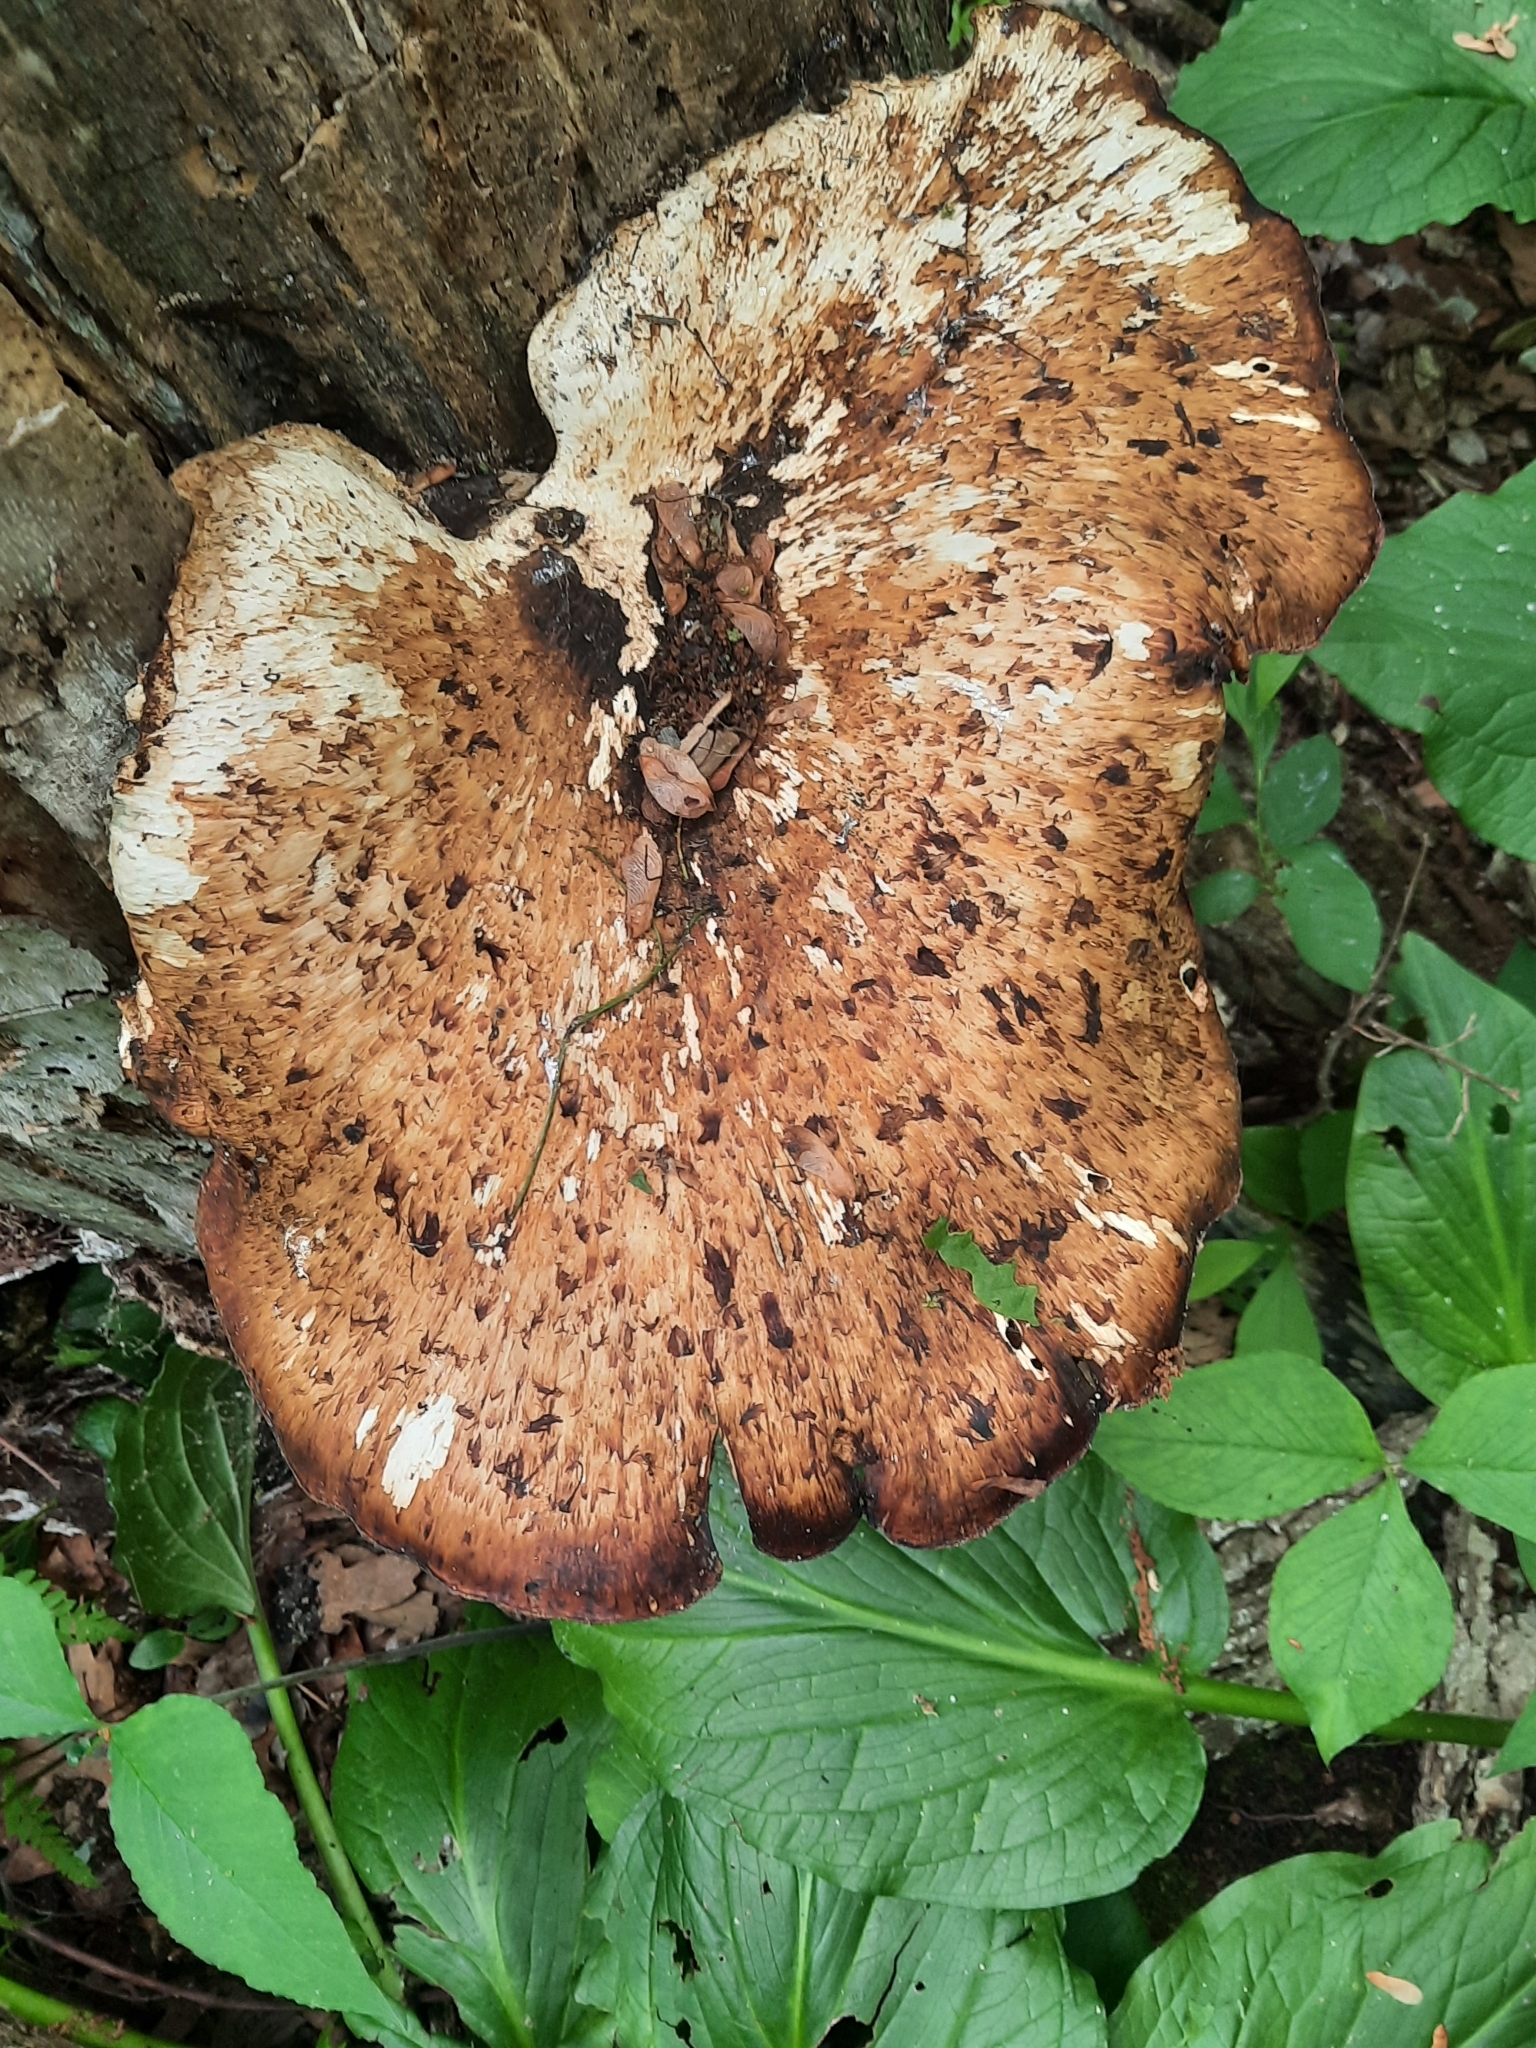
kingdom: Fungi
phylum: Basidiomycota
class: Agaricomycetes
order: Polyporales
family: Polyporaceae
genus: Cerioporus
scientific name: Cerioporus squamosus
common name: Dryad's saddle
